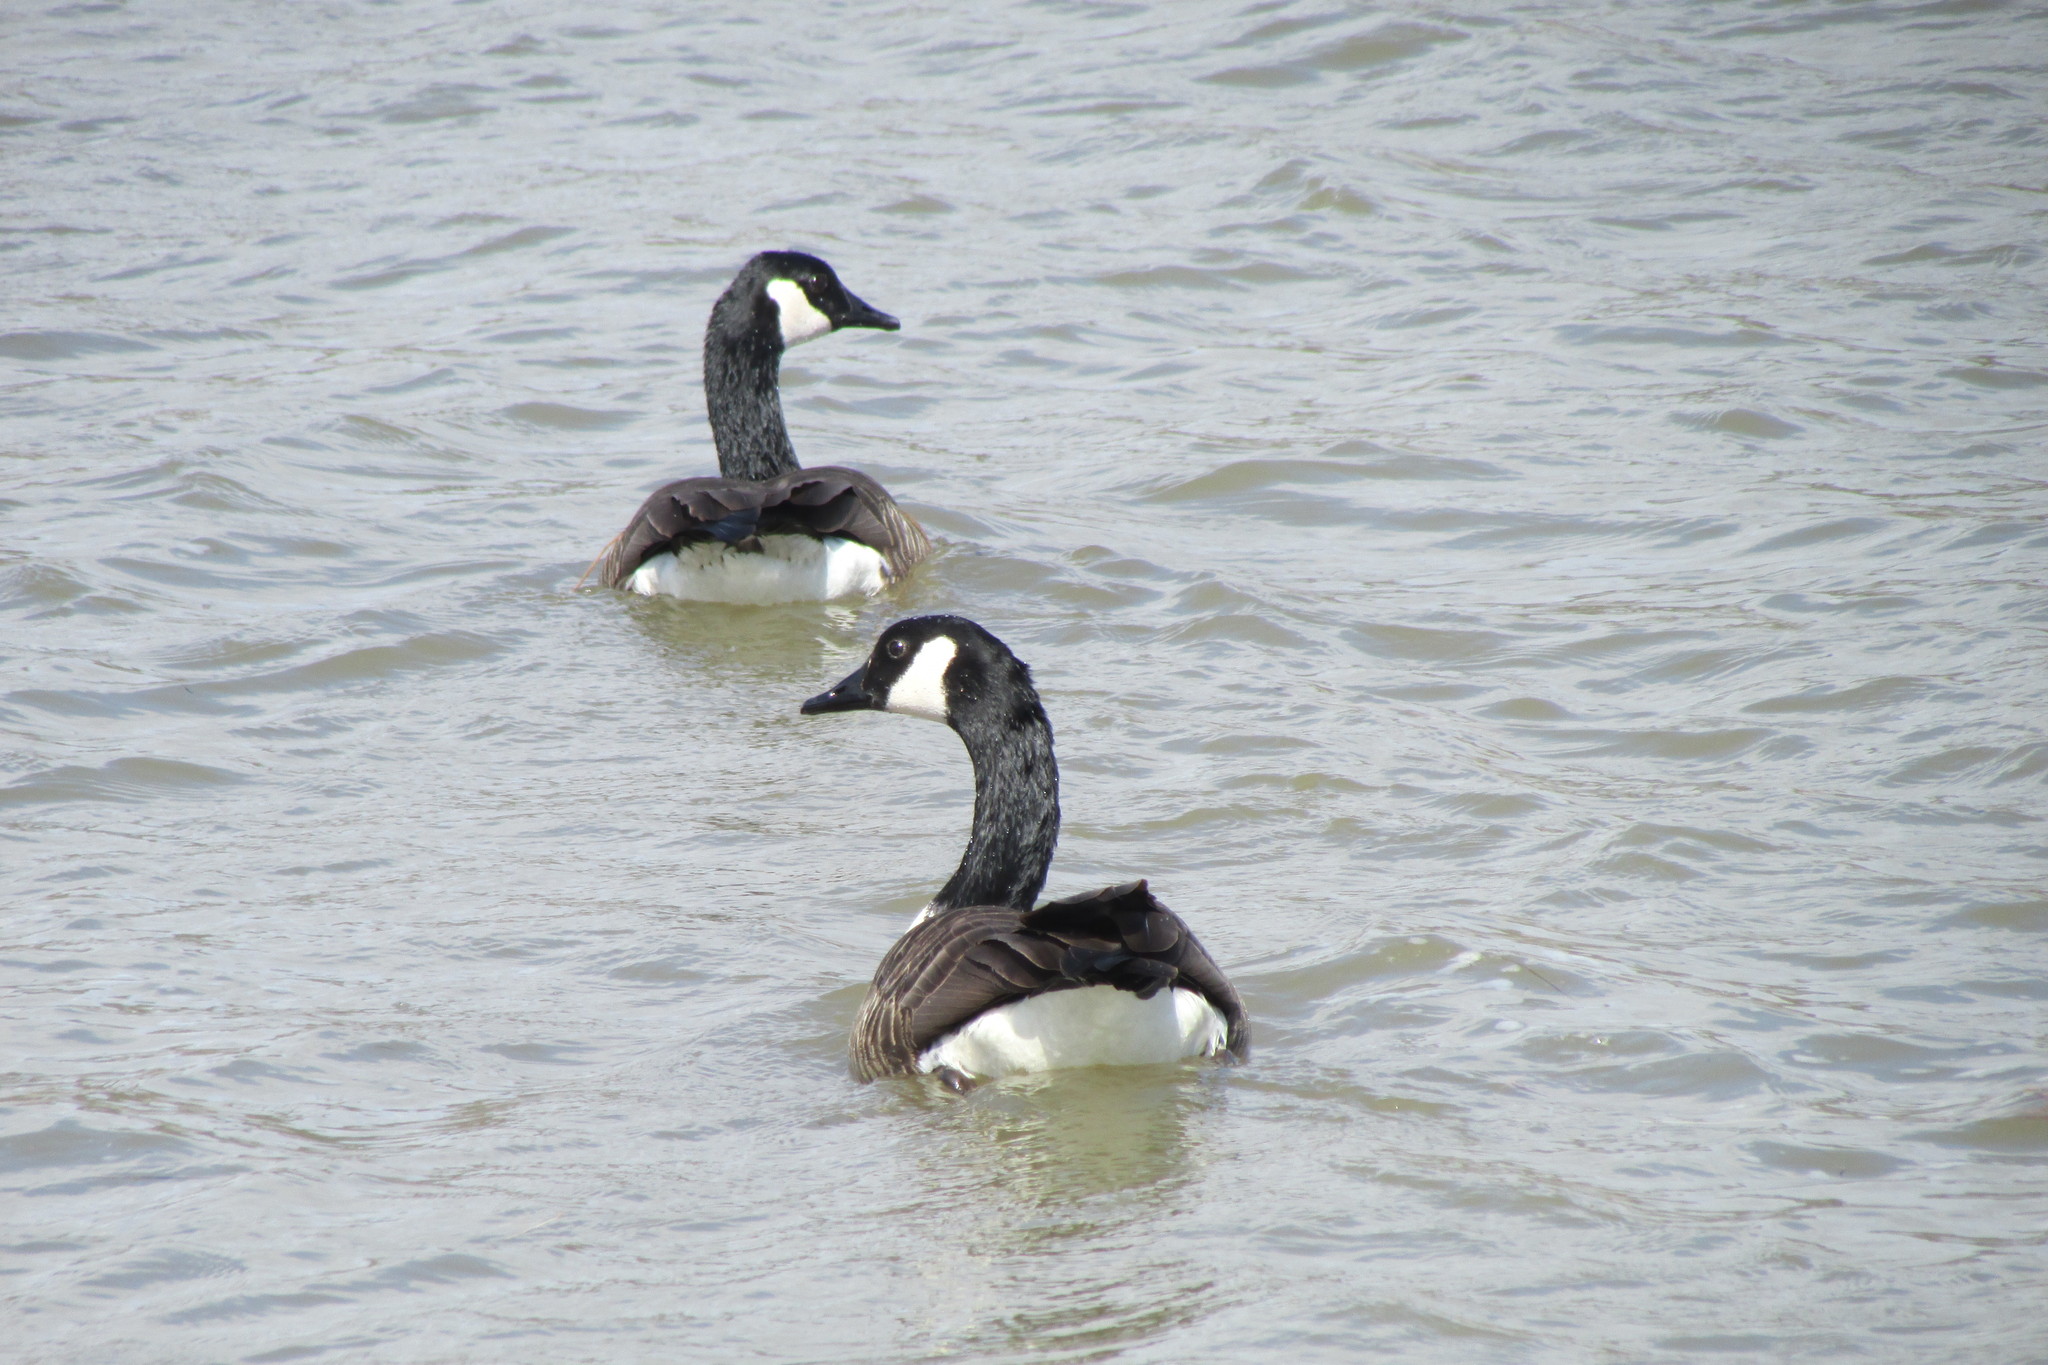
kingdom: Animalia
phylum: Chordata
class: Aves
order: Anseriformes
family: Anatidae
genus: Branta
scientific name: Branta canadensis
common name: Canada goose
